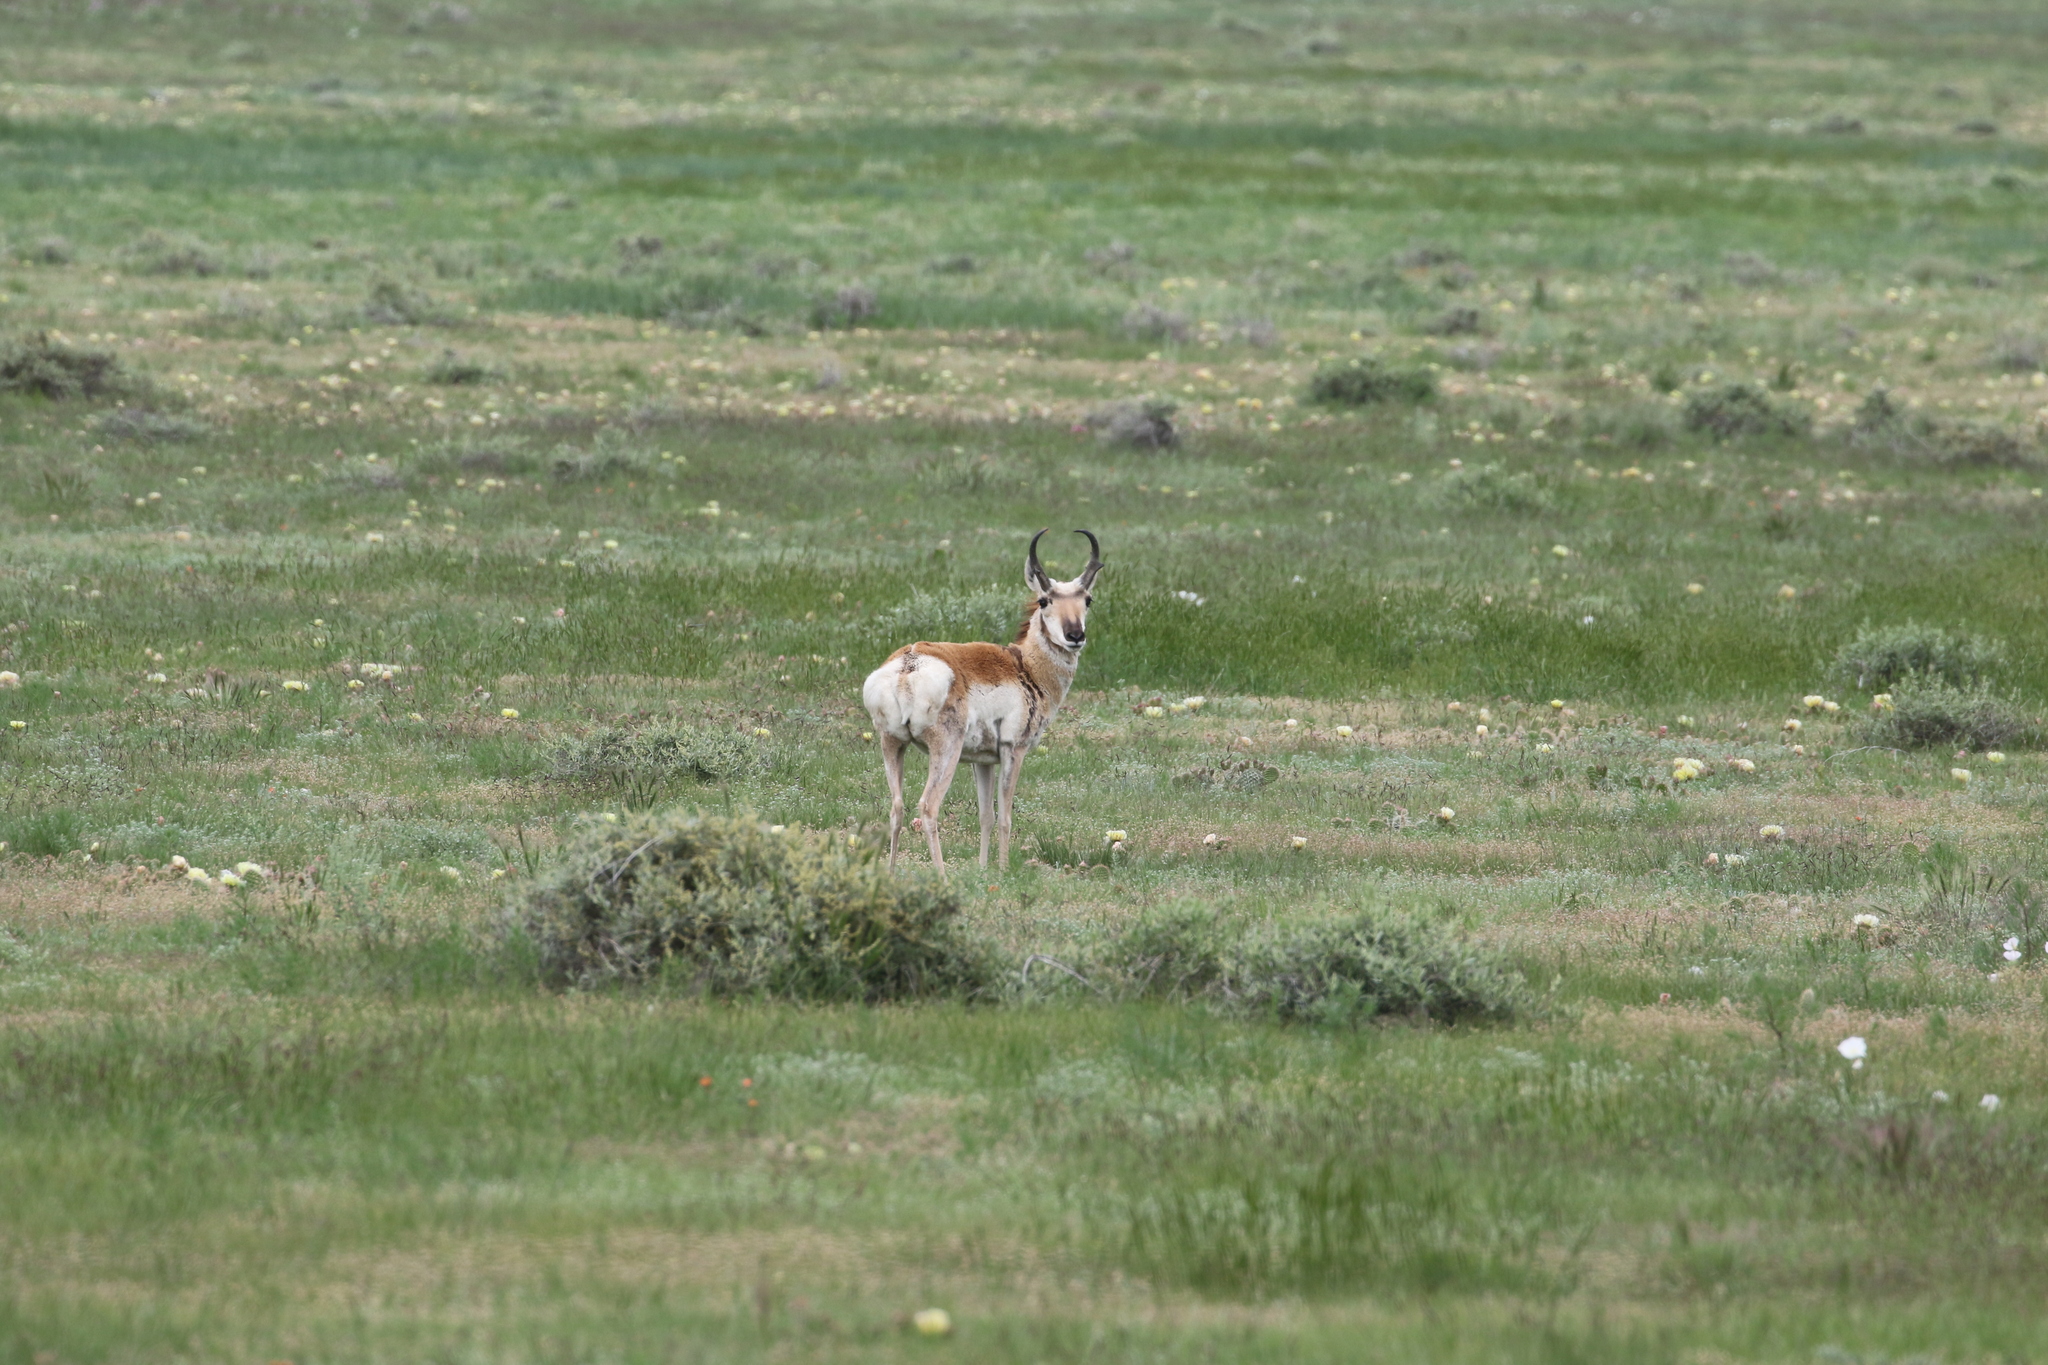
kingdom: Animalia
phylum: Chordata
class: Mammalia
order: Artiodactyla
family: Antilocapridae
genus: Antilocapra
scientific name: Antilocapra americana
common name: Pronghorn
